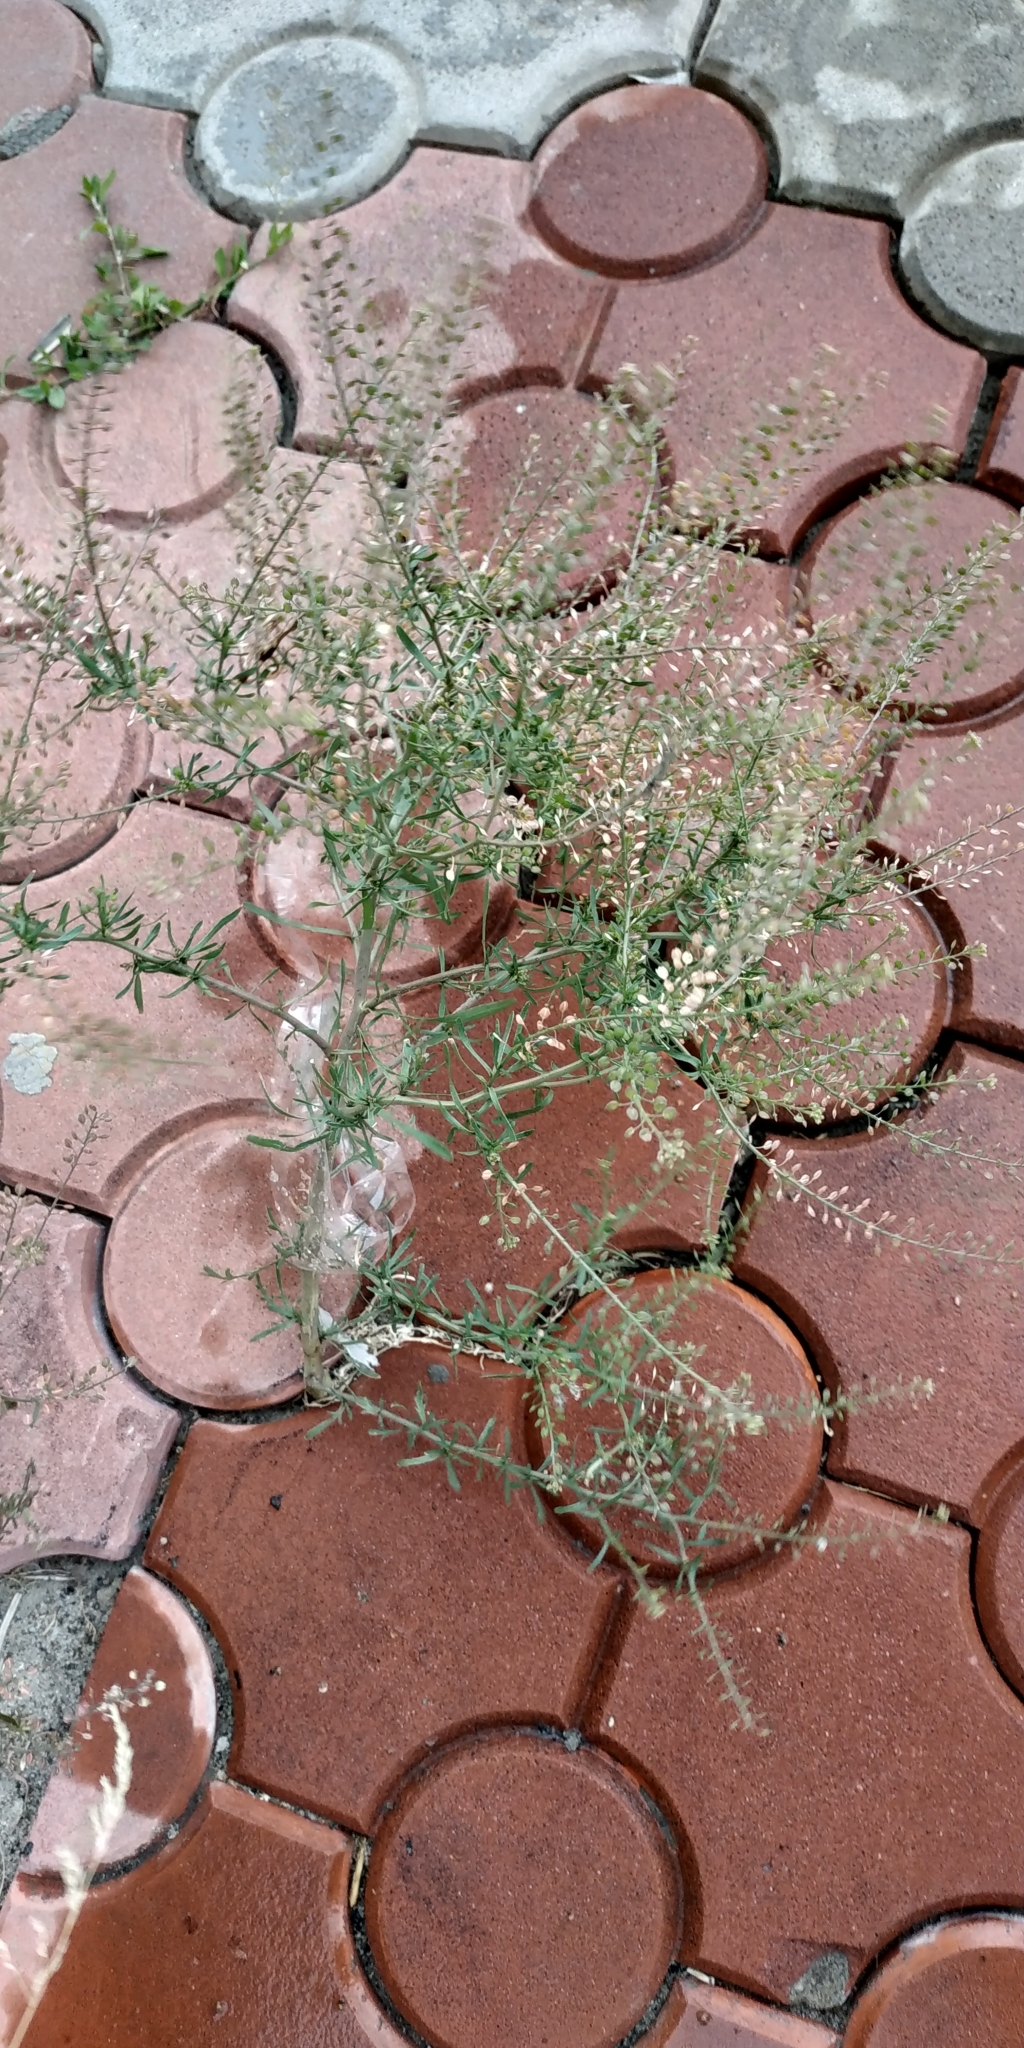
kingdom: Plantae
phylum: Tracheophyta
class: Magnoliopsida
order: Brassicales
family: Brassicaceae
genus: Lepidium
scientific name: Lepidium ruderale
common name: Narrow-leaved pepperwort
